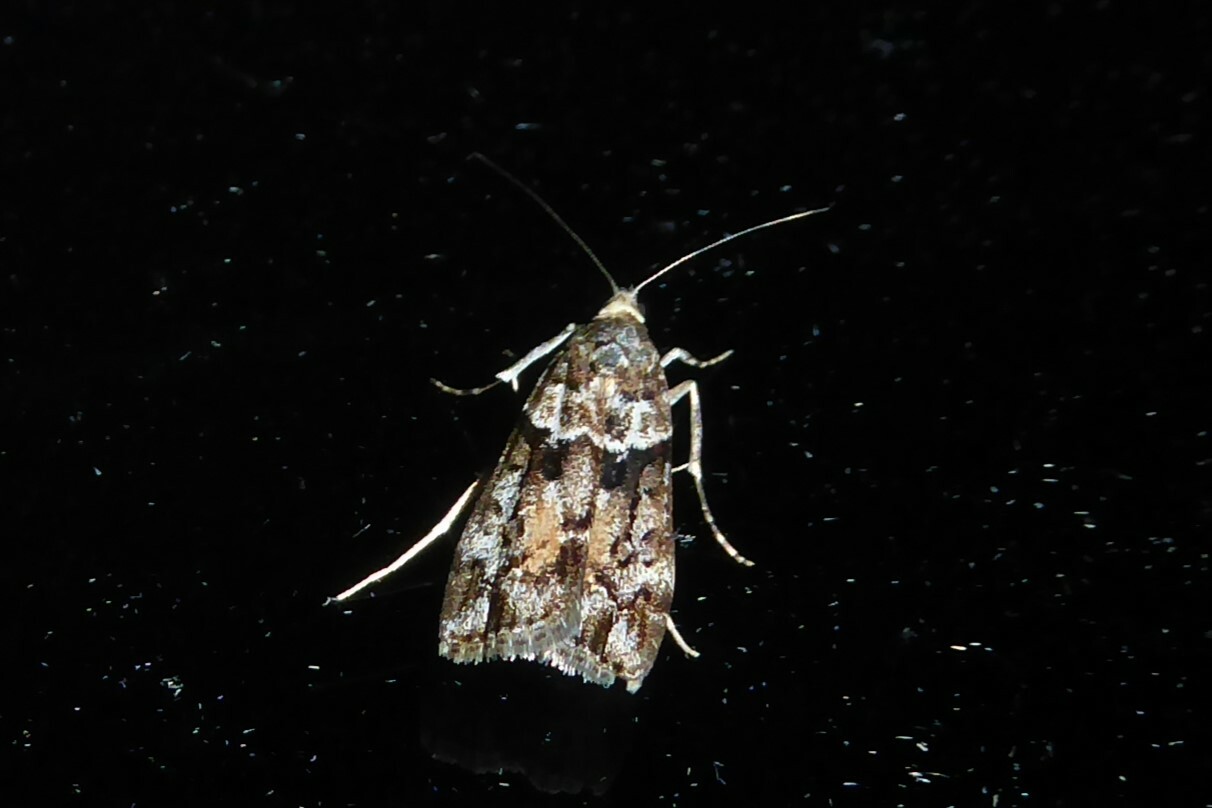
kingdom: Animalia
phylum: Arthropoda
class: Insecta
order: Lepidoptera
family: Crambidae
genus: Eudonia
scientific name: Eudonia submarginalis
